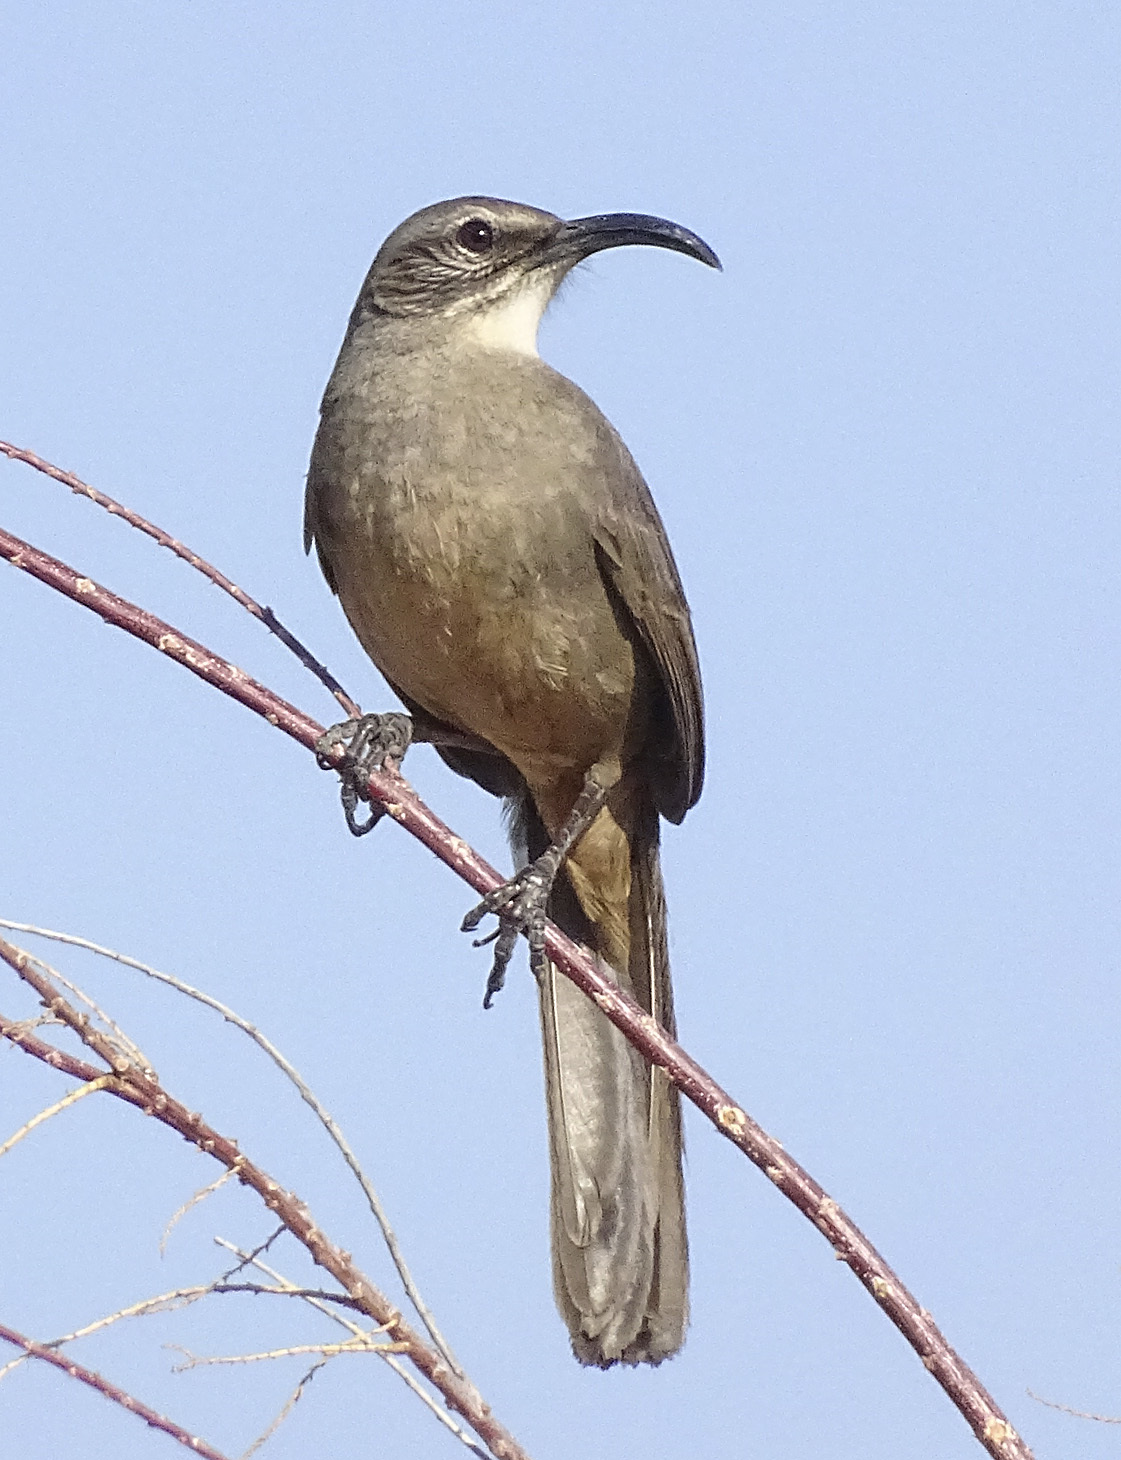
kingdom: Animalia
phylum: Chordata
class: Aves
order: Passeriformes
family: Mimidae
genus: Toxostoma
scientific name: Toxostoma redivivum
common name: California thrasher
